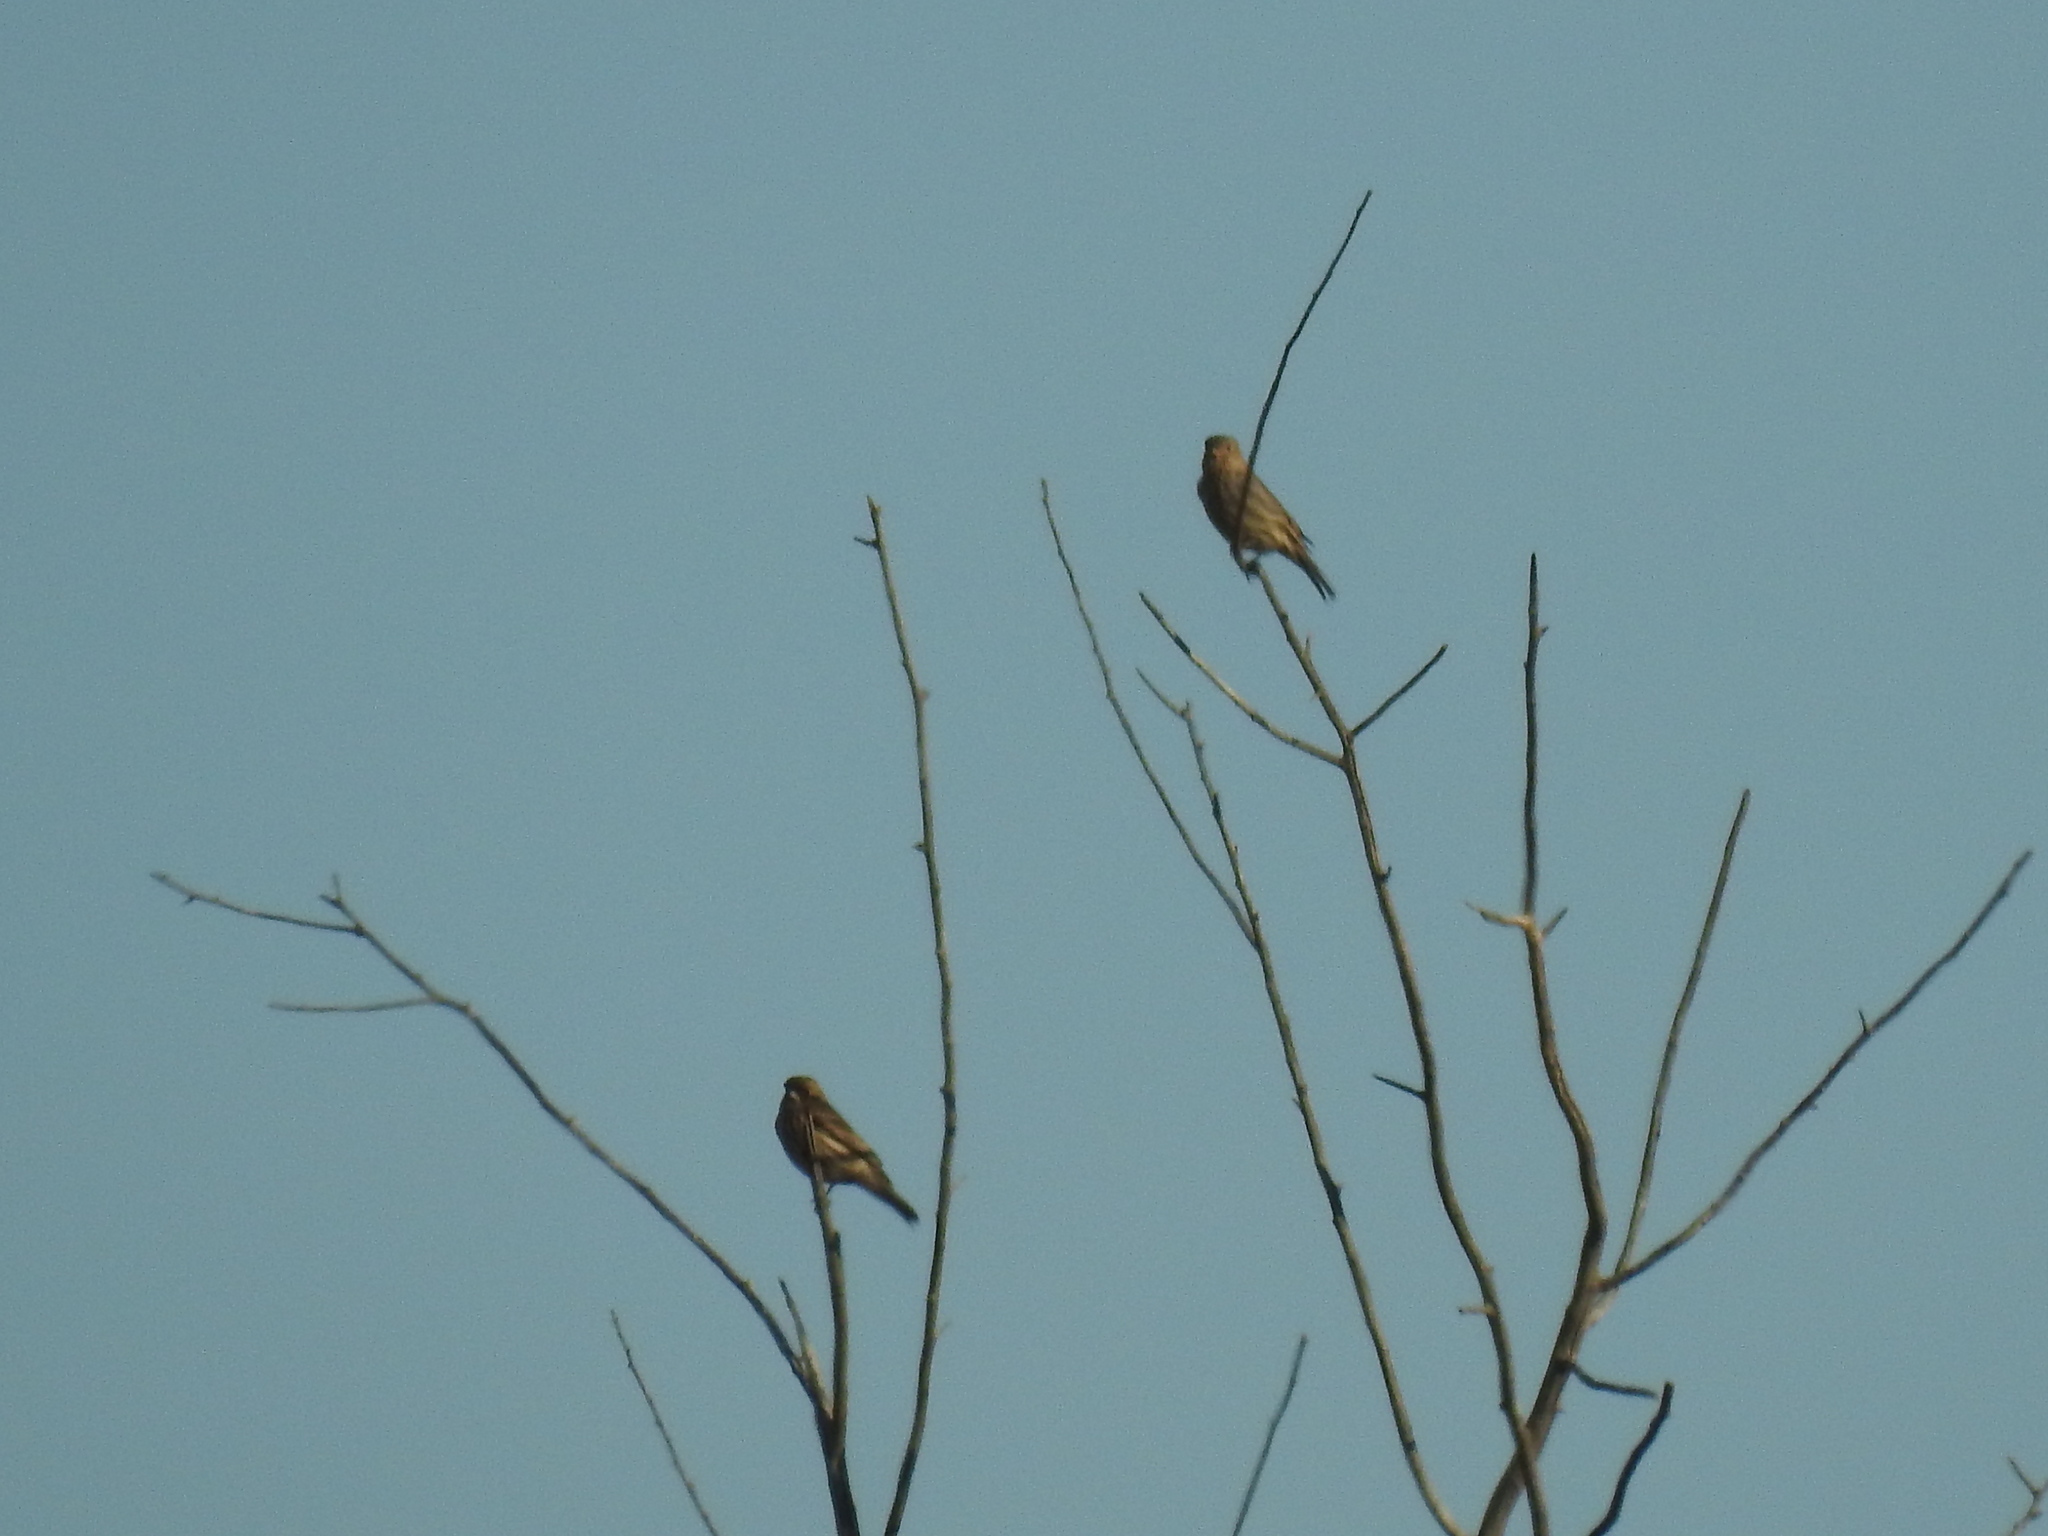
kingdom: Animalia
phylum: Chordata
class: Aves
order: Passeriformes
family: Fringillidae
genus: Haemorhous
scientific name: Haemorhous mexicanus
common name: House finch
